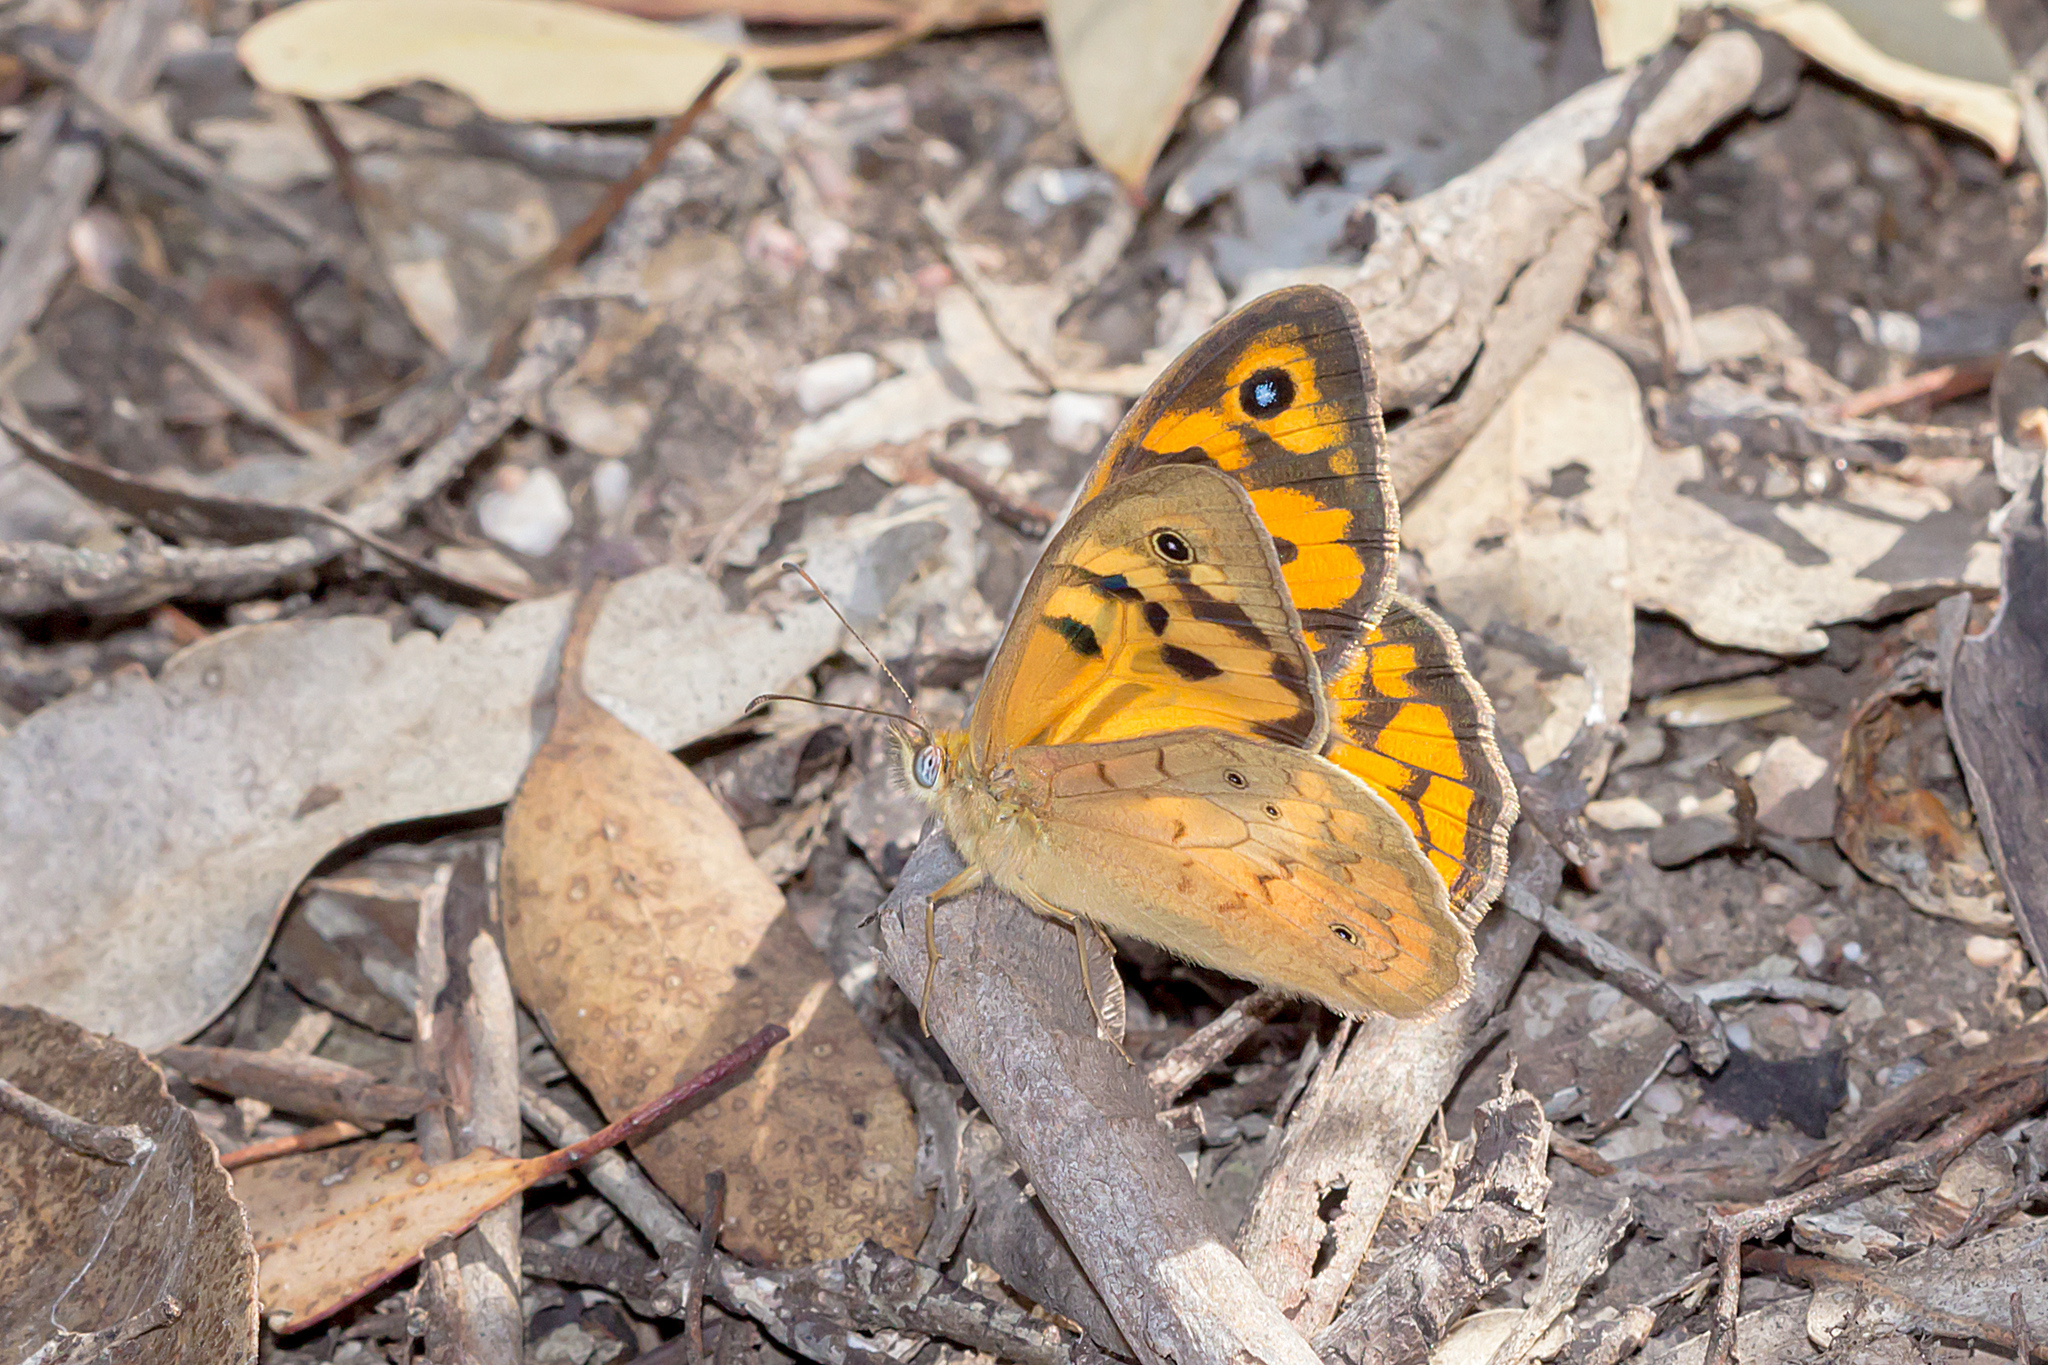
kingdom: Animalia
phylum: Arthropoda
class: Insecta
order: Lepidoptera
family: Nymphalidae
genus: Heteronympha
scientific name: Heteronympha merope
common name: Common brown
